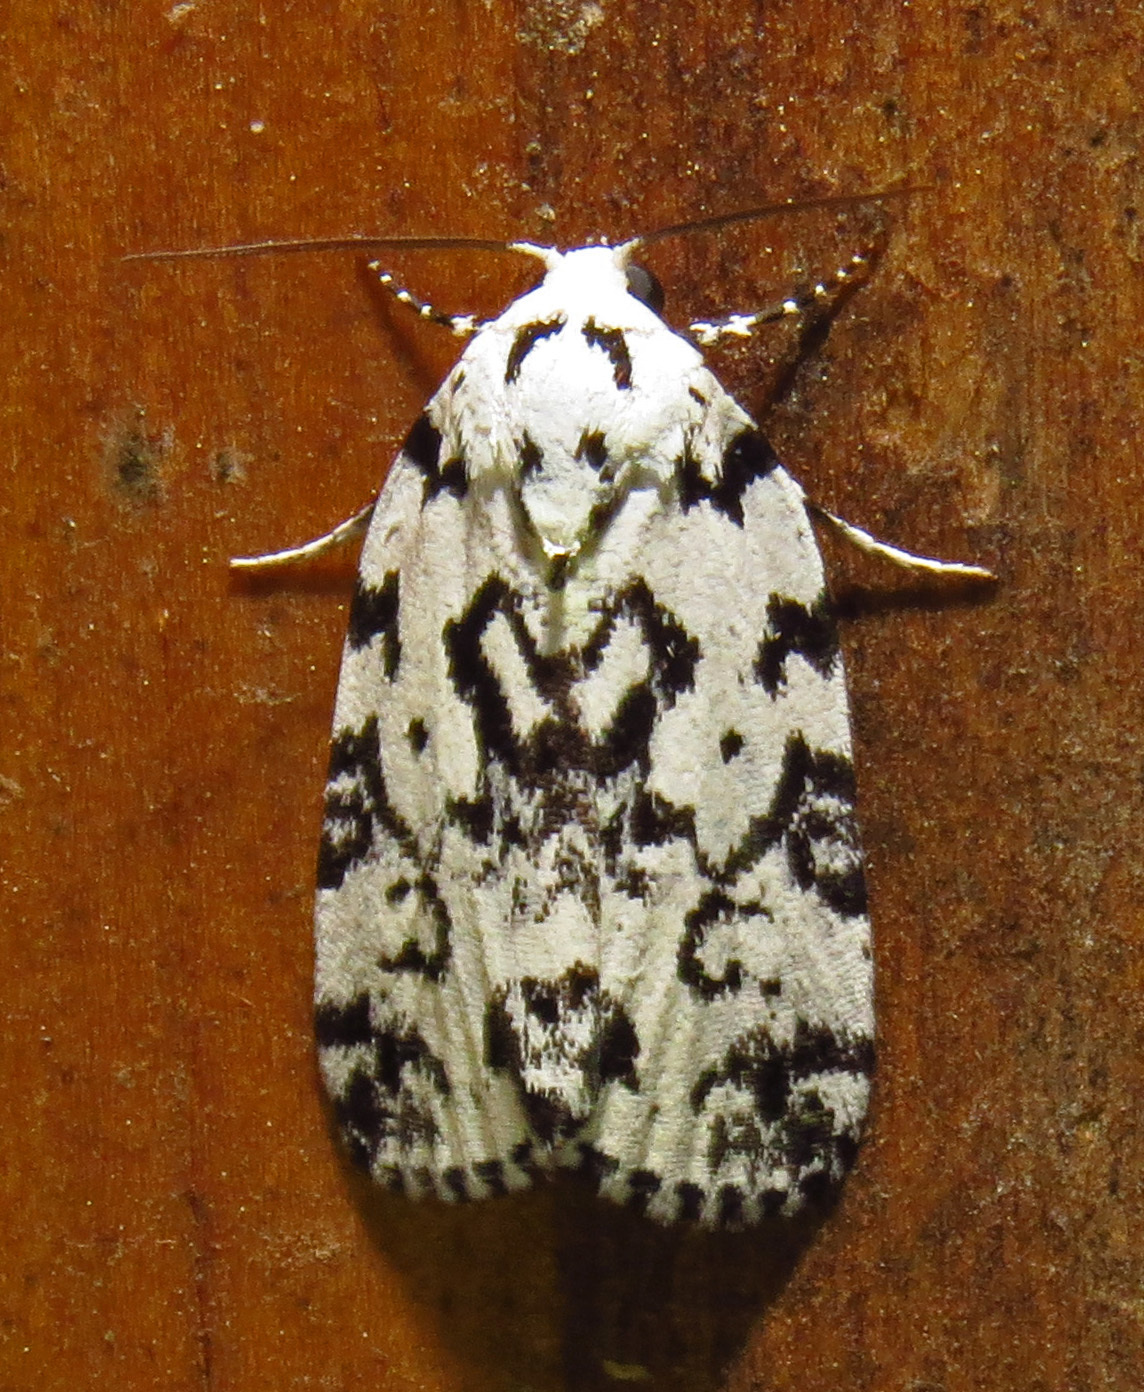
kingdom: Animalia
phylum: Arthropoda
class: Insecta
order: Lepidoptera
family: Noctuidae
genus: Polygrammate
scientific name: Polygrammate hebraeicum
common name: Hebrew moth
